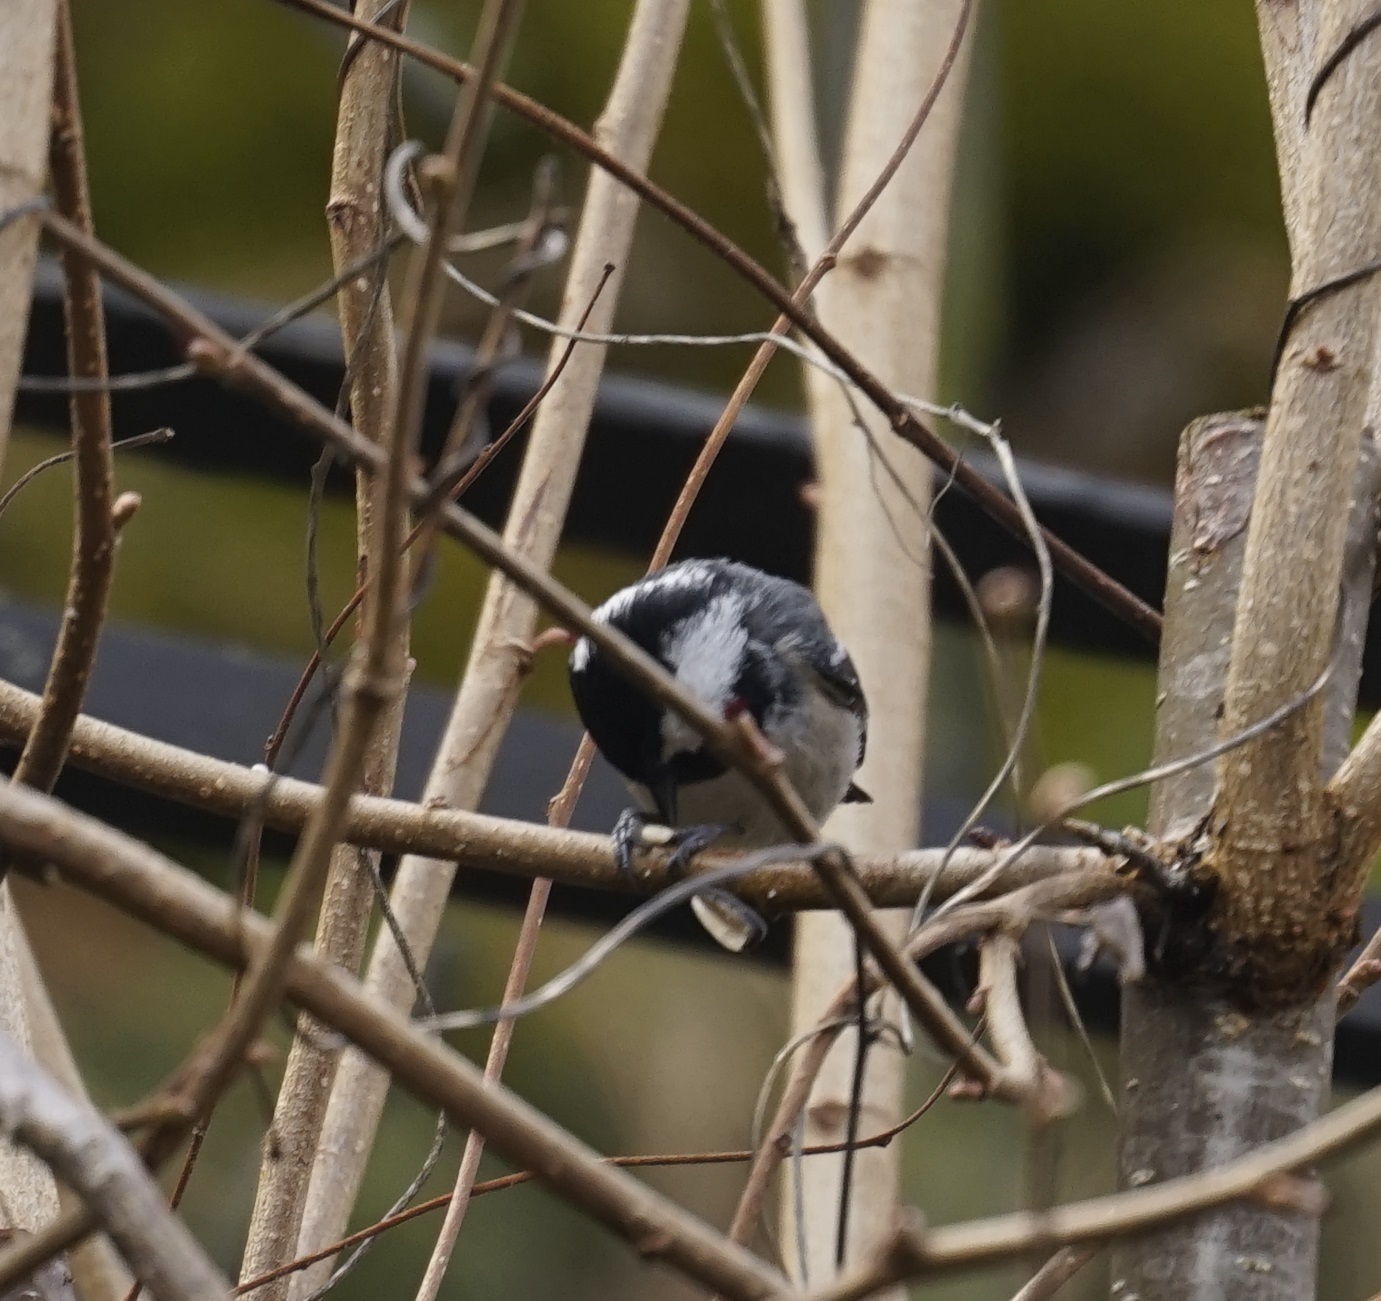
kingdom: Animalia
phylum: Chordata
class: Aves
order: Passeriformes
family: Paridae
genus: Periparus
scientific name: Periparus ater
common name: Coal tit
